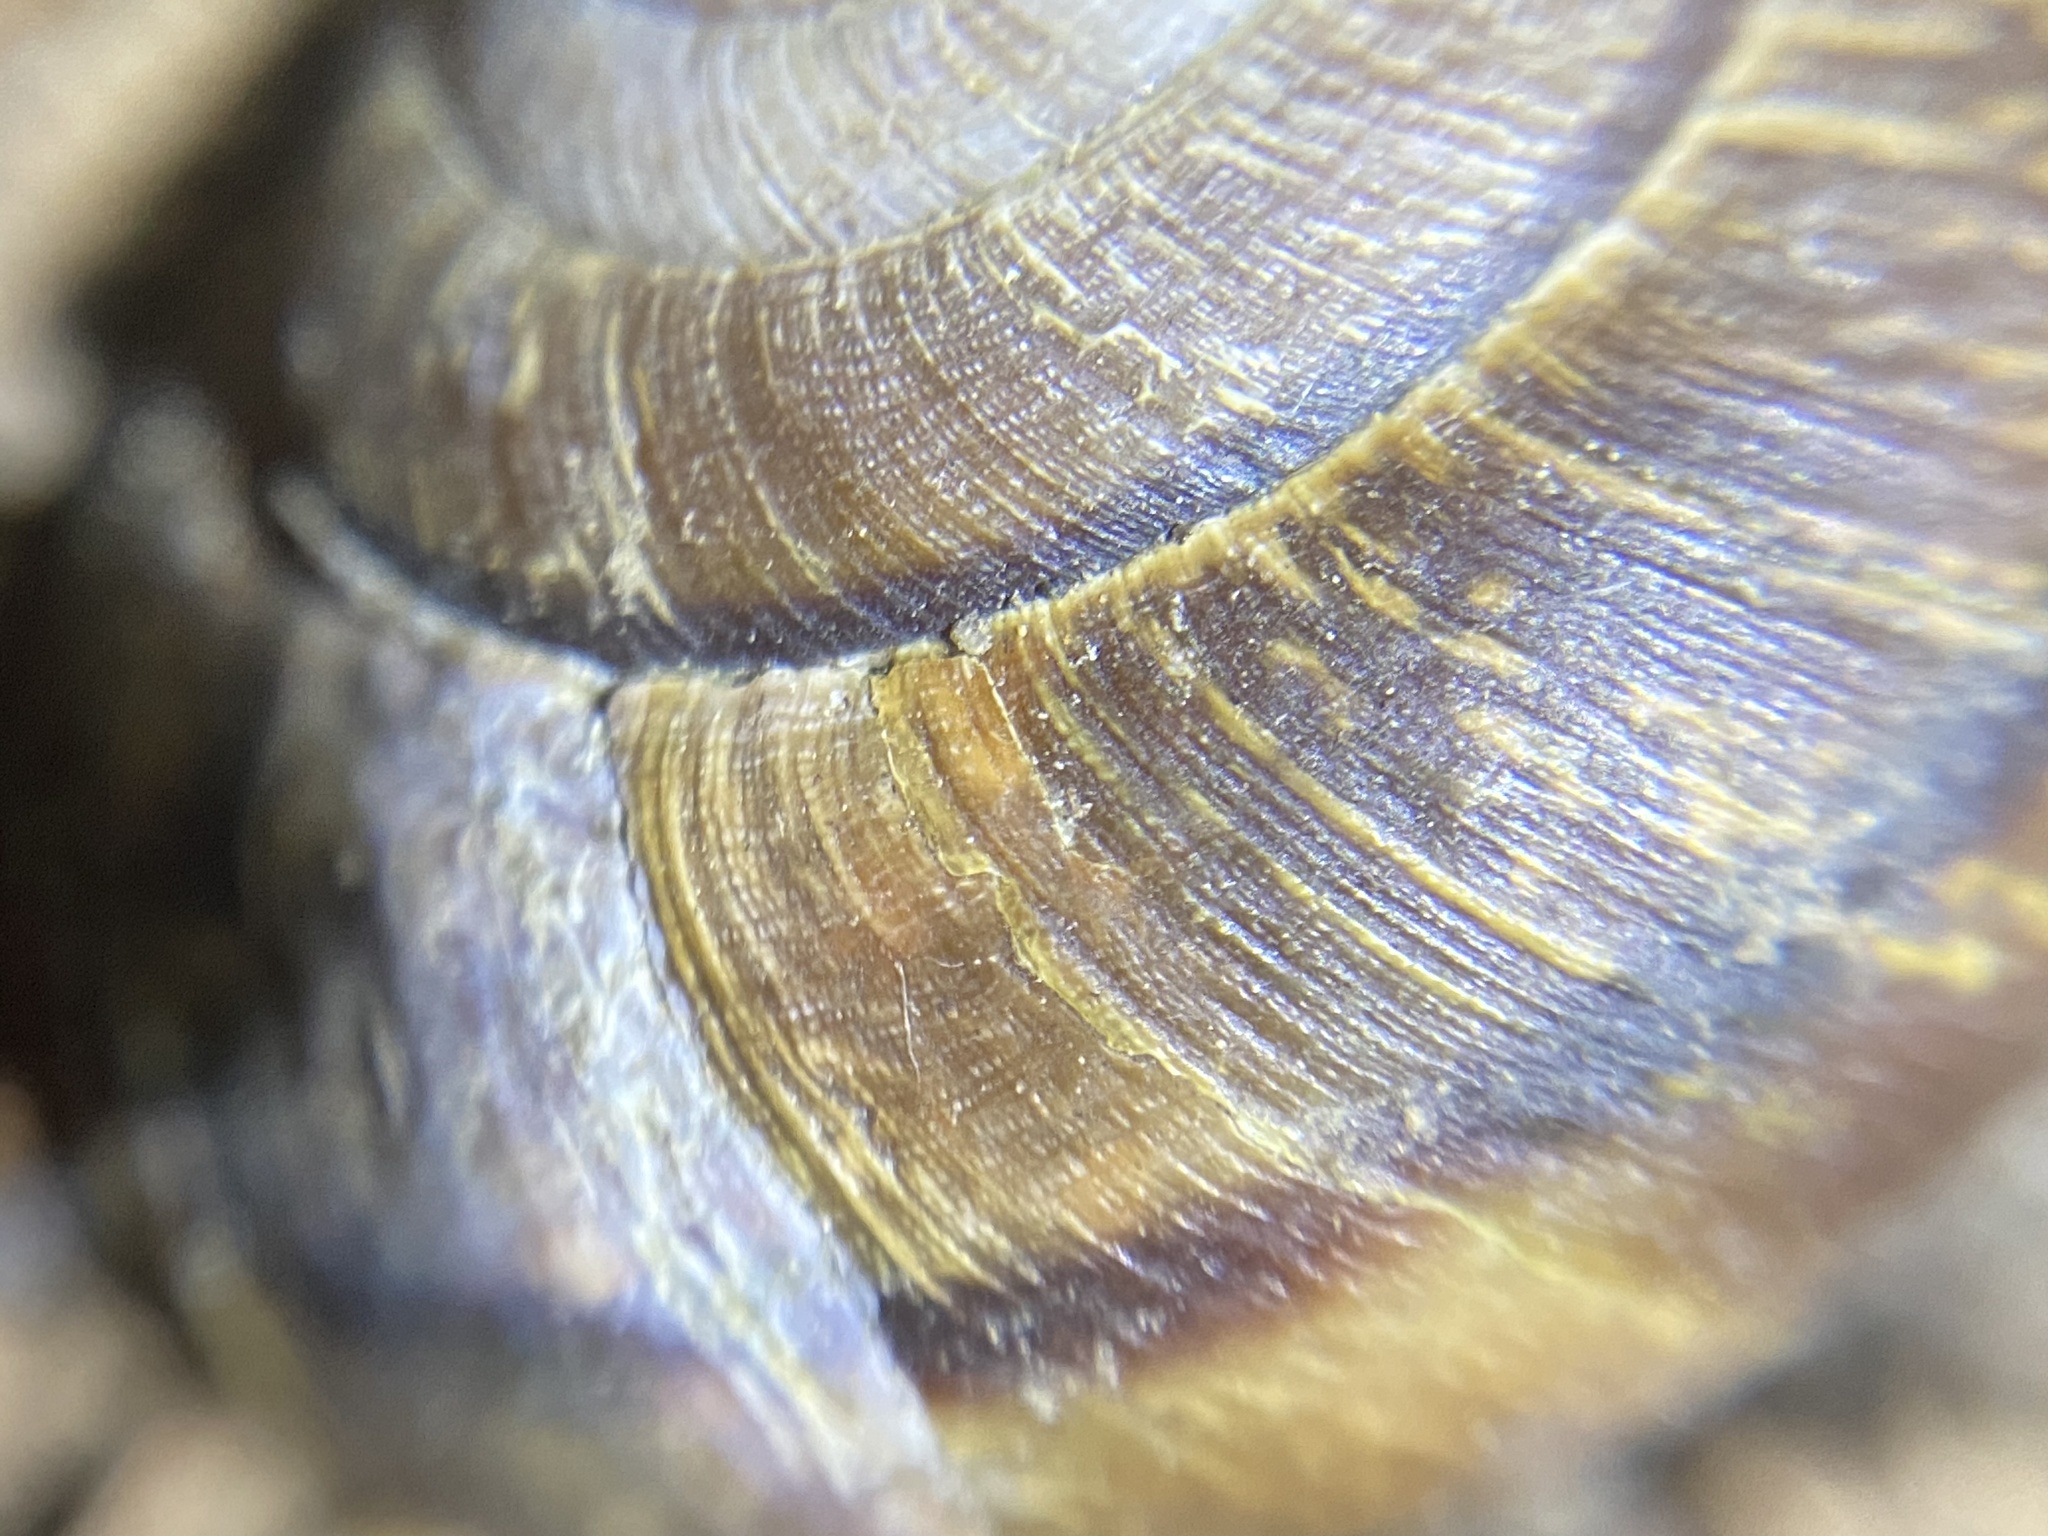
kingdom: Animalia
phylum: Mollusca
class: Gastropoda
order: Stylommatophora
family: Xanthonychidae
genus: Helminthoglypta
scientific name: Helminthoglypta arrosa
